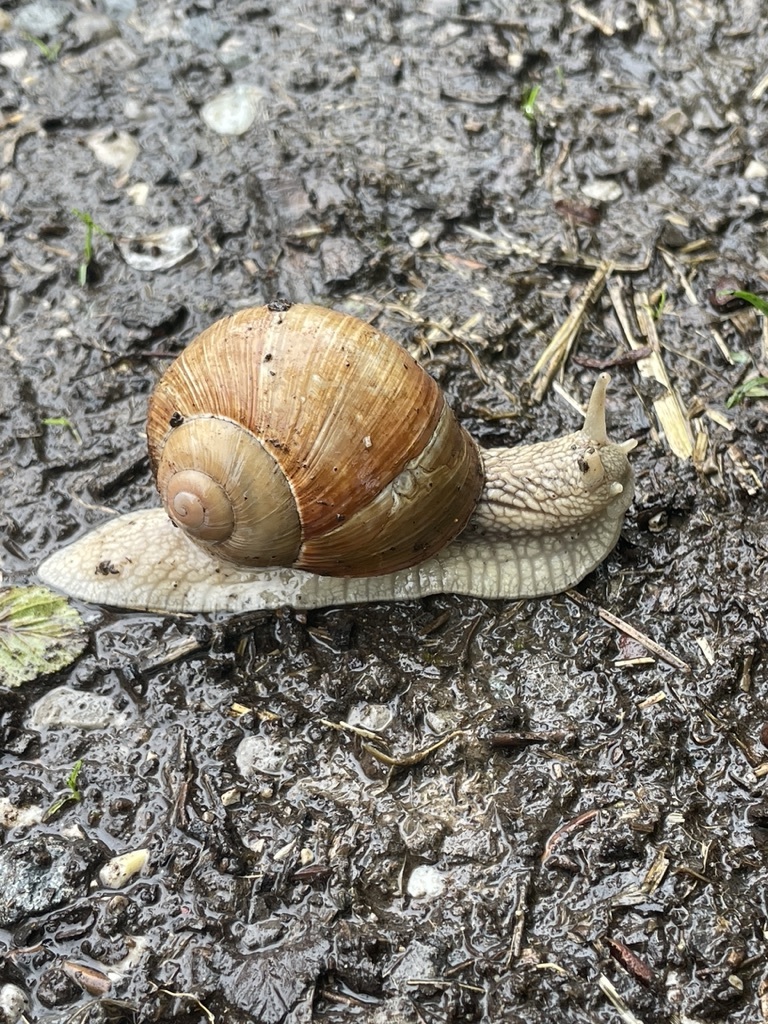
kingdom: Animalia
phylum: Mollusca
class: Gastropoda
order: Stylommatophora
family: Helicidae
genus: Helix
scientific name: Helix pomatia
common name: Roman snail
